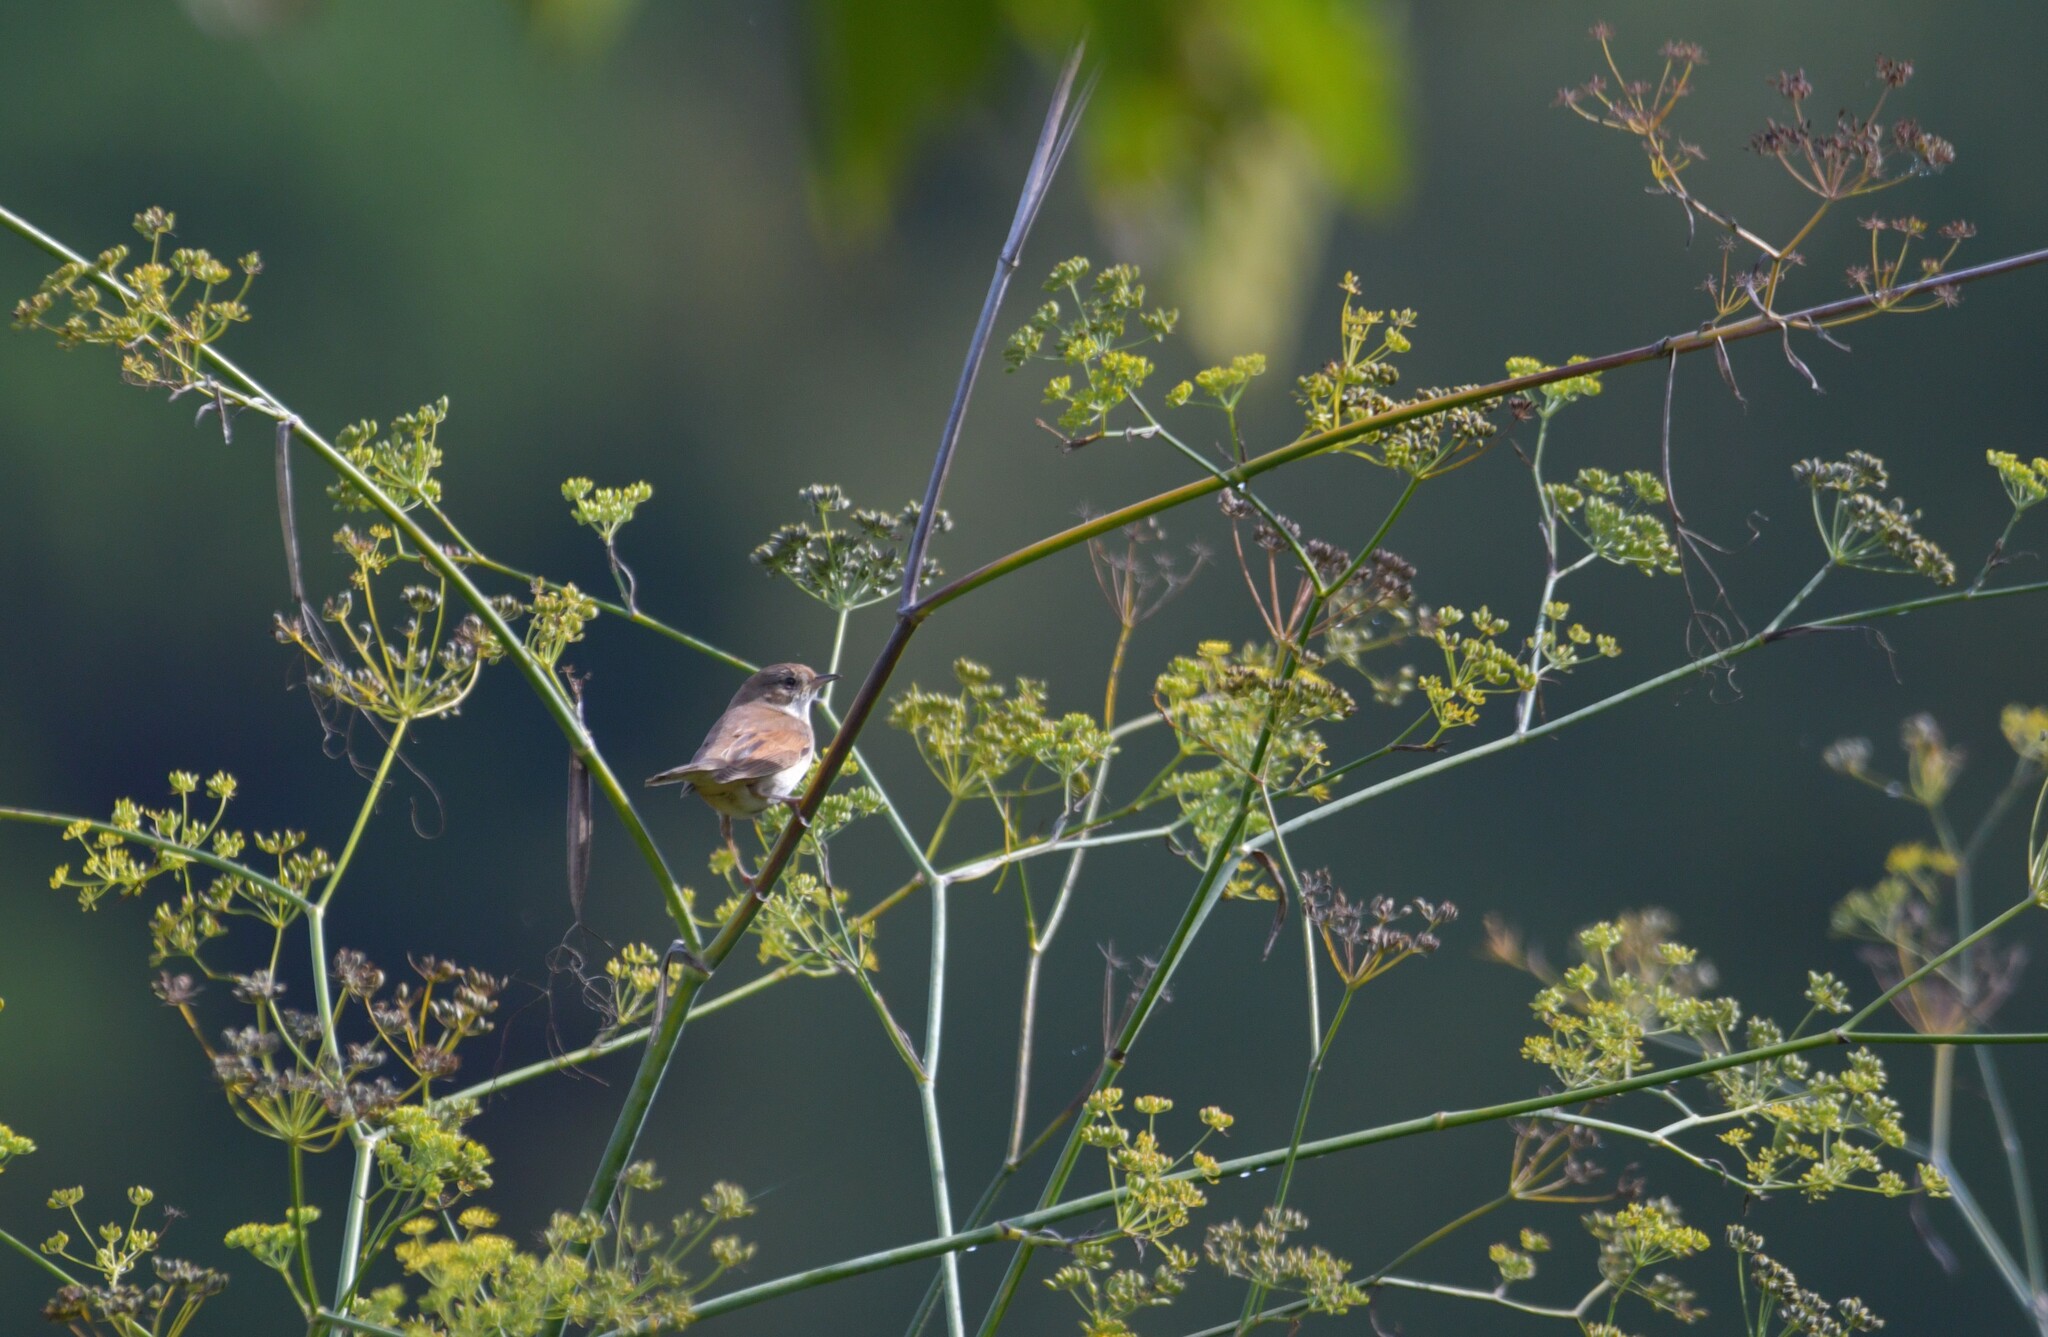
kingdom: Animalia
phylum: Chordata
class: Aves
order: Passeriformes
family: Sylviidae
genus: Sylvia
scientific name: Sylvia communis
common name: Common whitethroat
